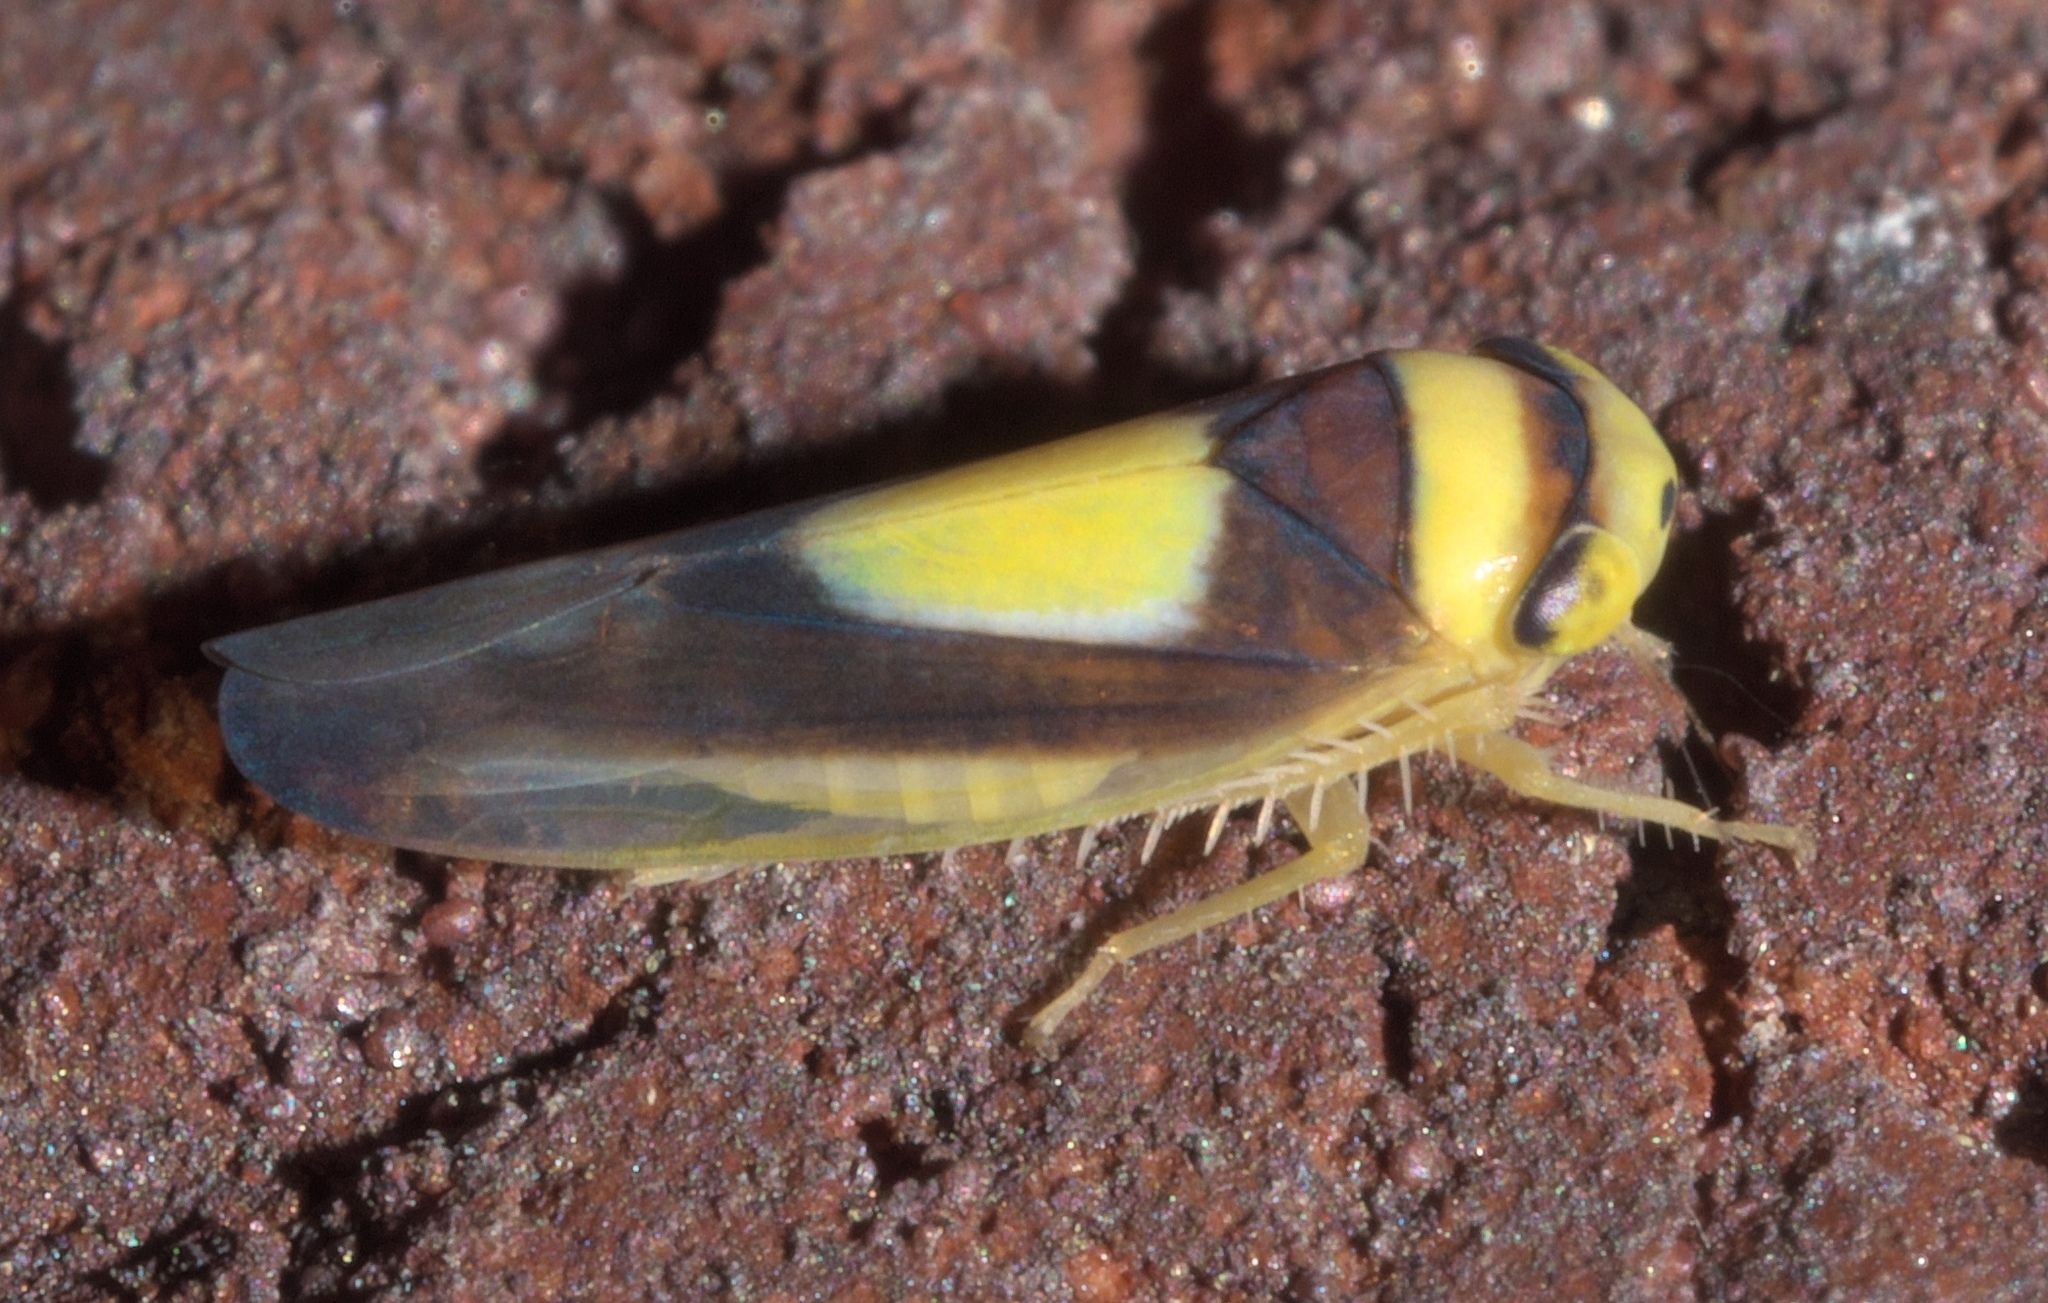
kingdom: Animalia
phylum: Arthropoda
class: Insecta
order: Hemiptera
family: Cicadellidae
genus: Colladonus
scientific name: Colladonus clitellarius
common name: The saddleback leafhopper
